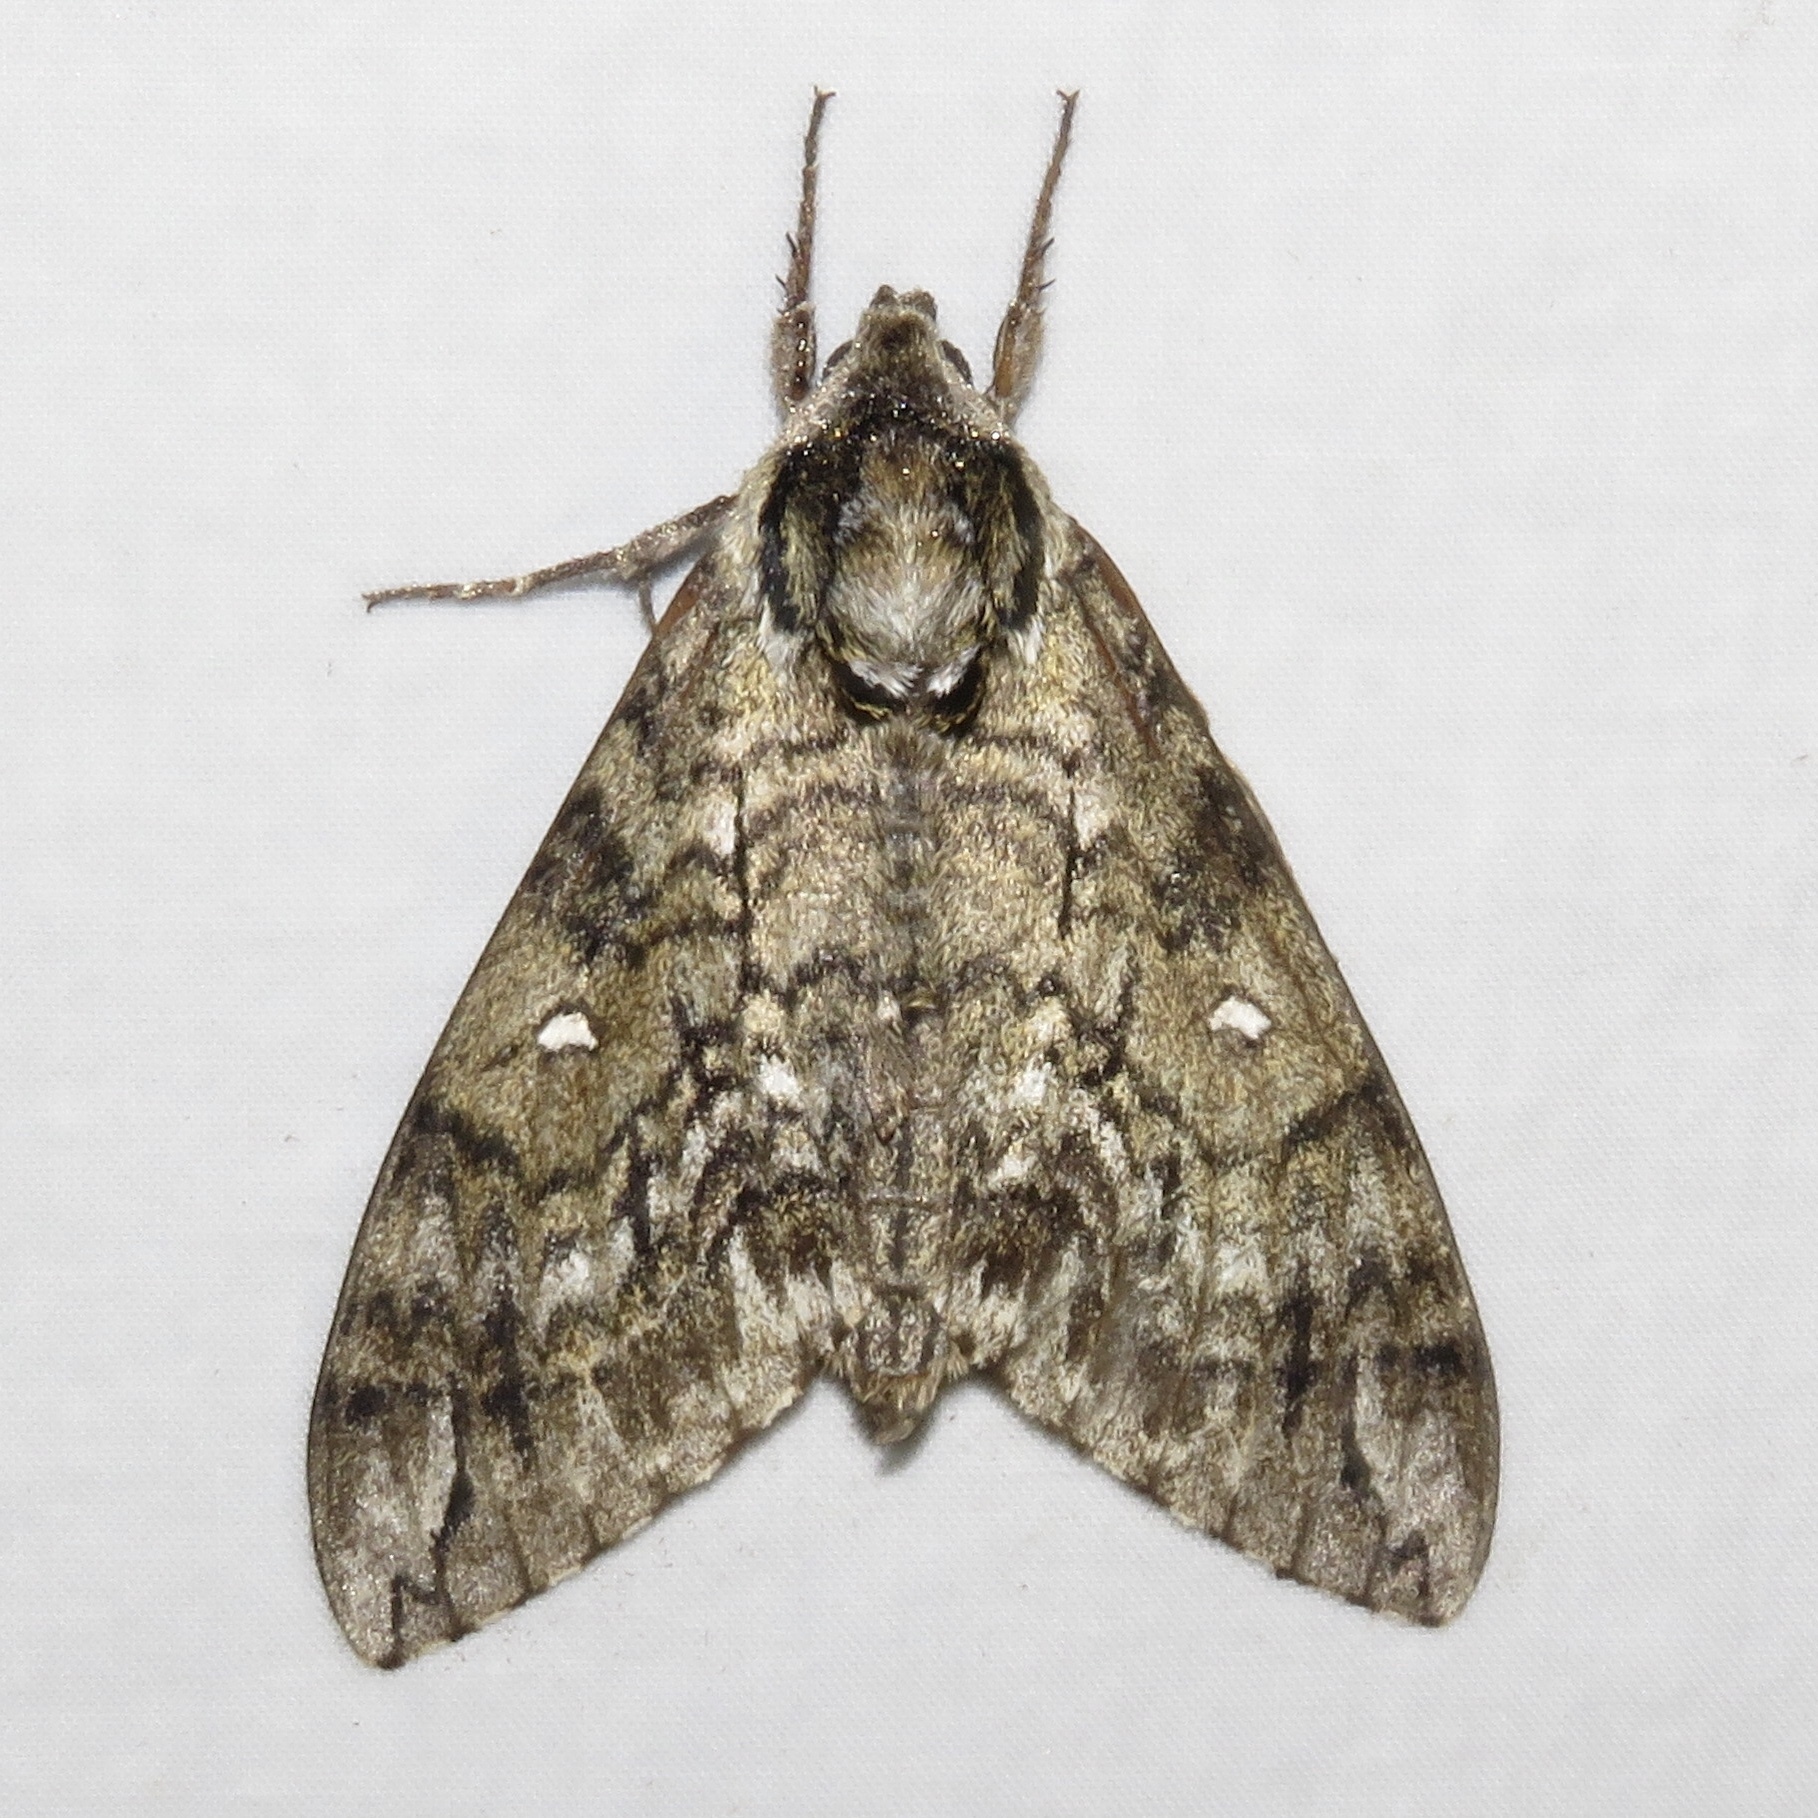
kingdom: Animalia
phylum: Arthropoda
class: Insecta
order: Lepidoptera
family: Sphingidae
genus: Ceratomia
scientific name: Ceratomia undulosa
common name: Waved sphinx
